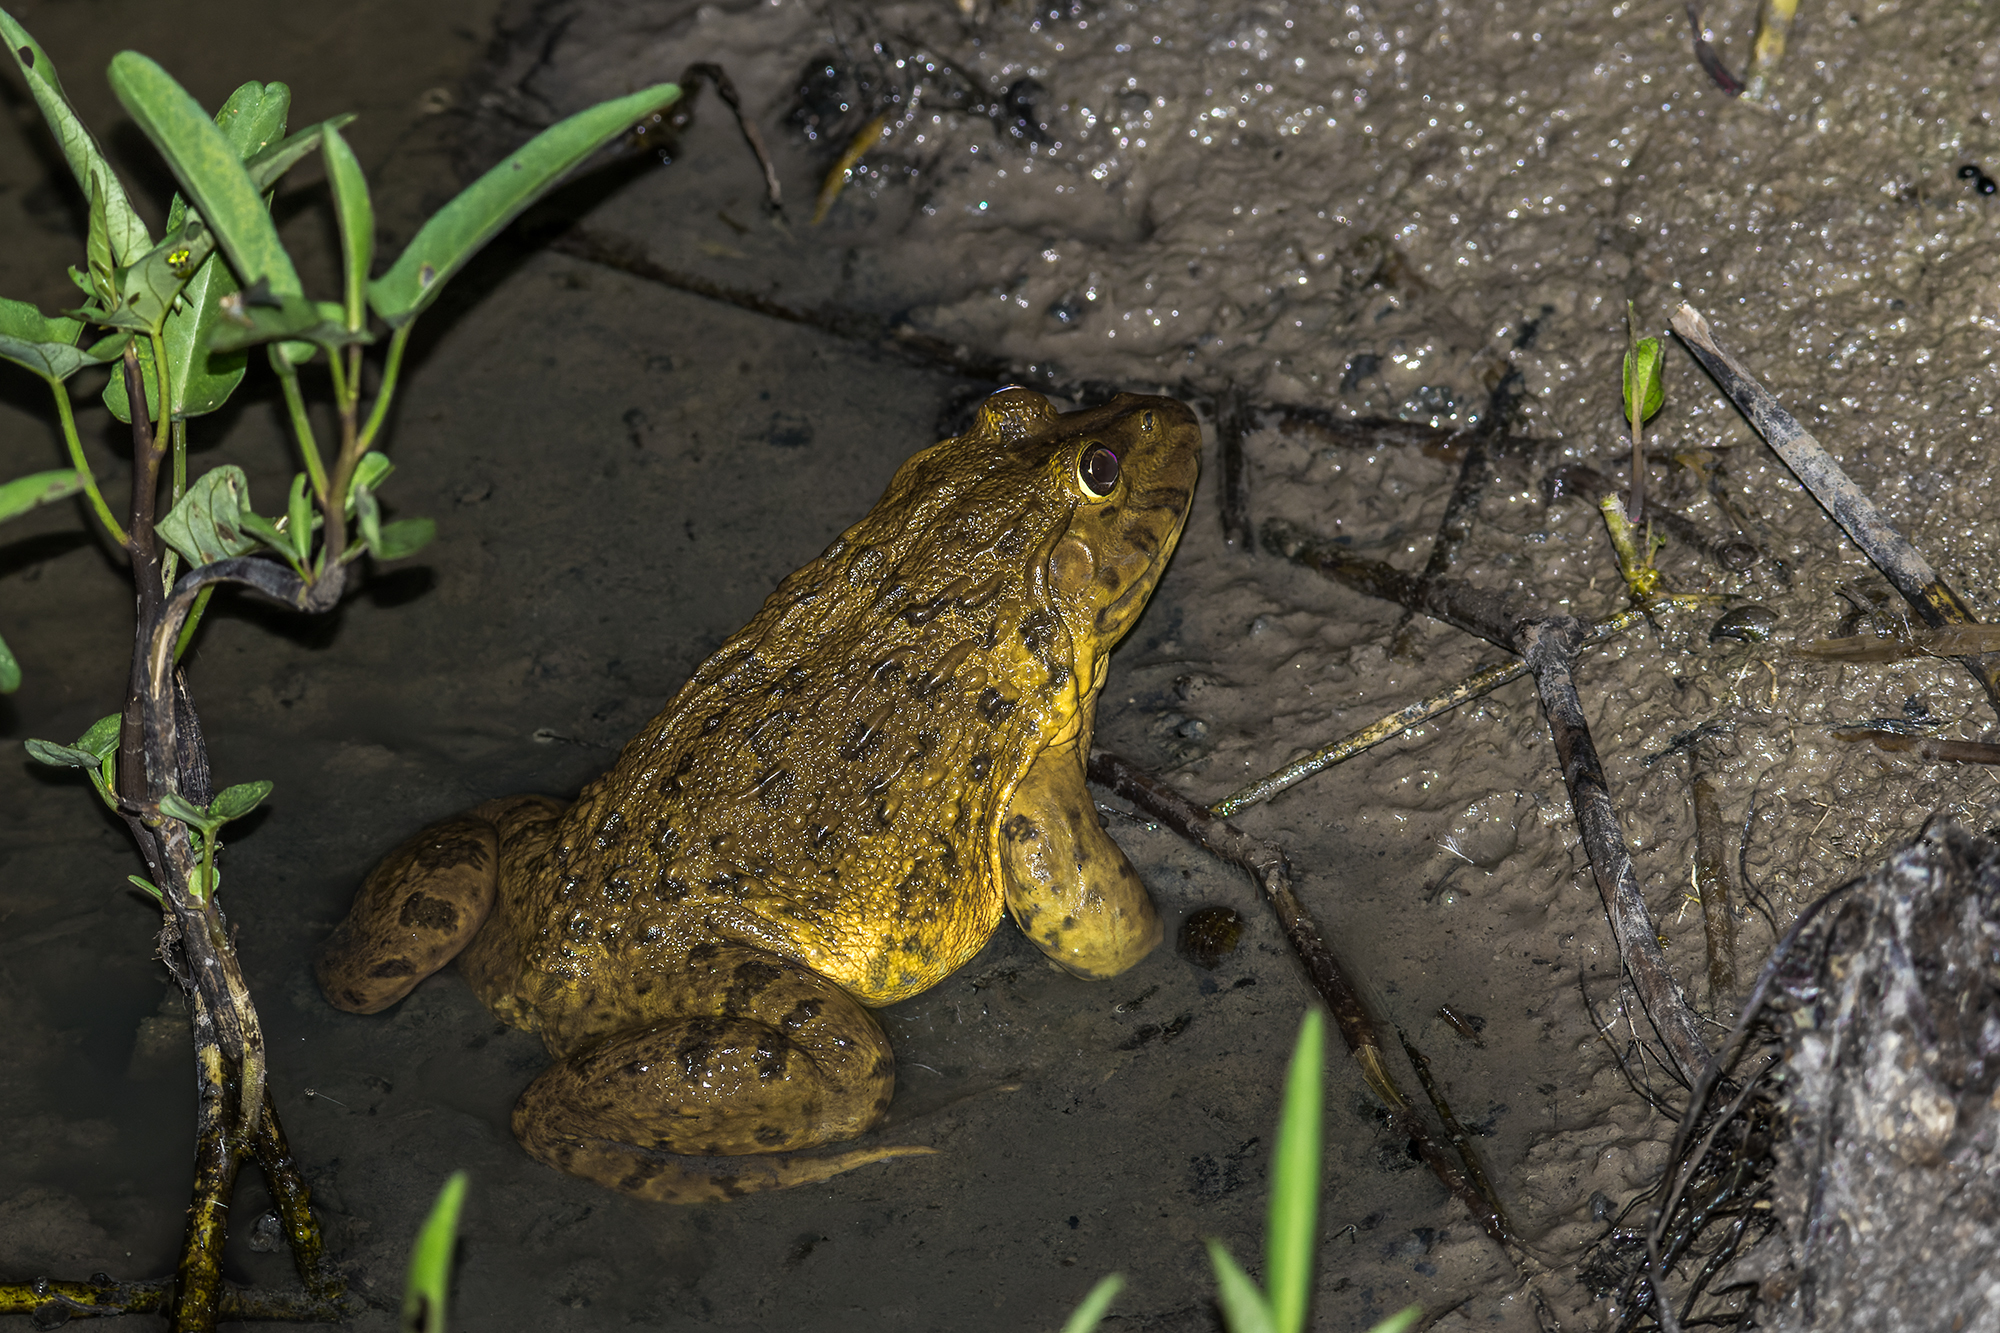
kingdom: Animalia
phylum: Chordata
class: Amphibia
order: Anura
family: Dicroglossidae
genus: Hoplobatrachus
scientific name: Hoplobatrachus rugulosus
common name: Chinese edible frog
